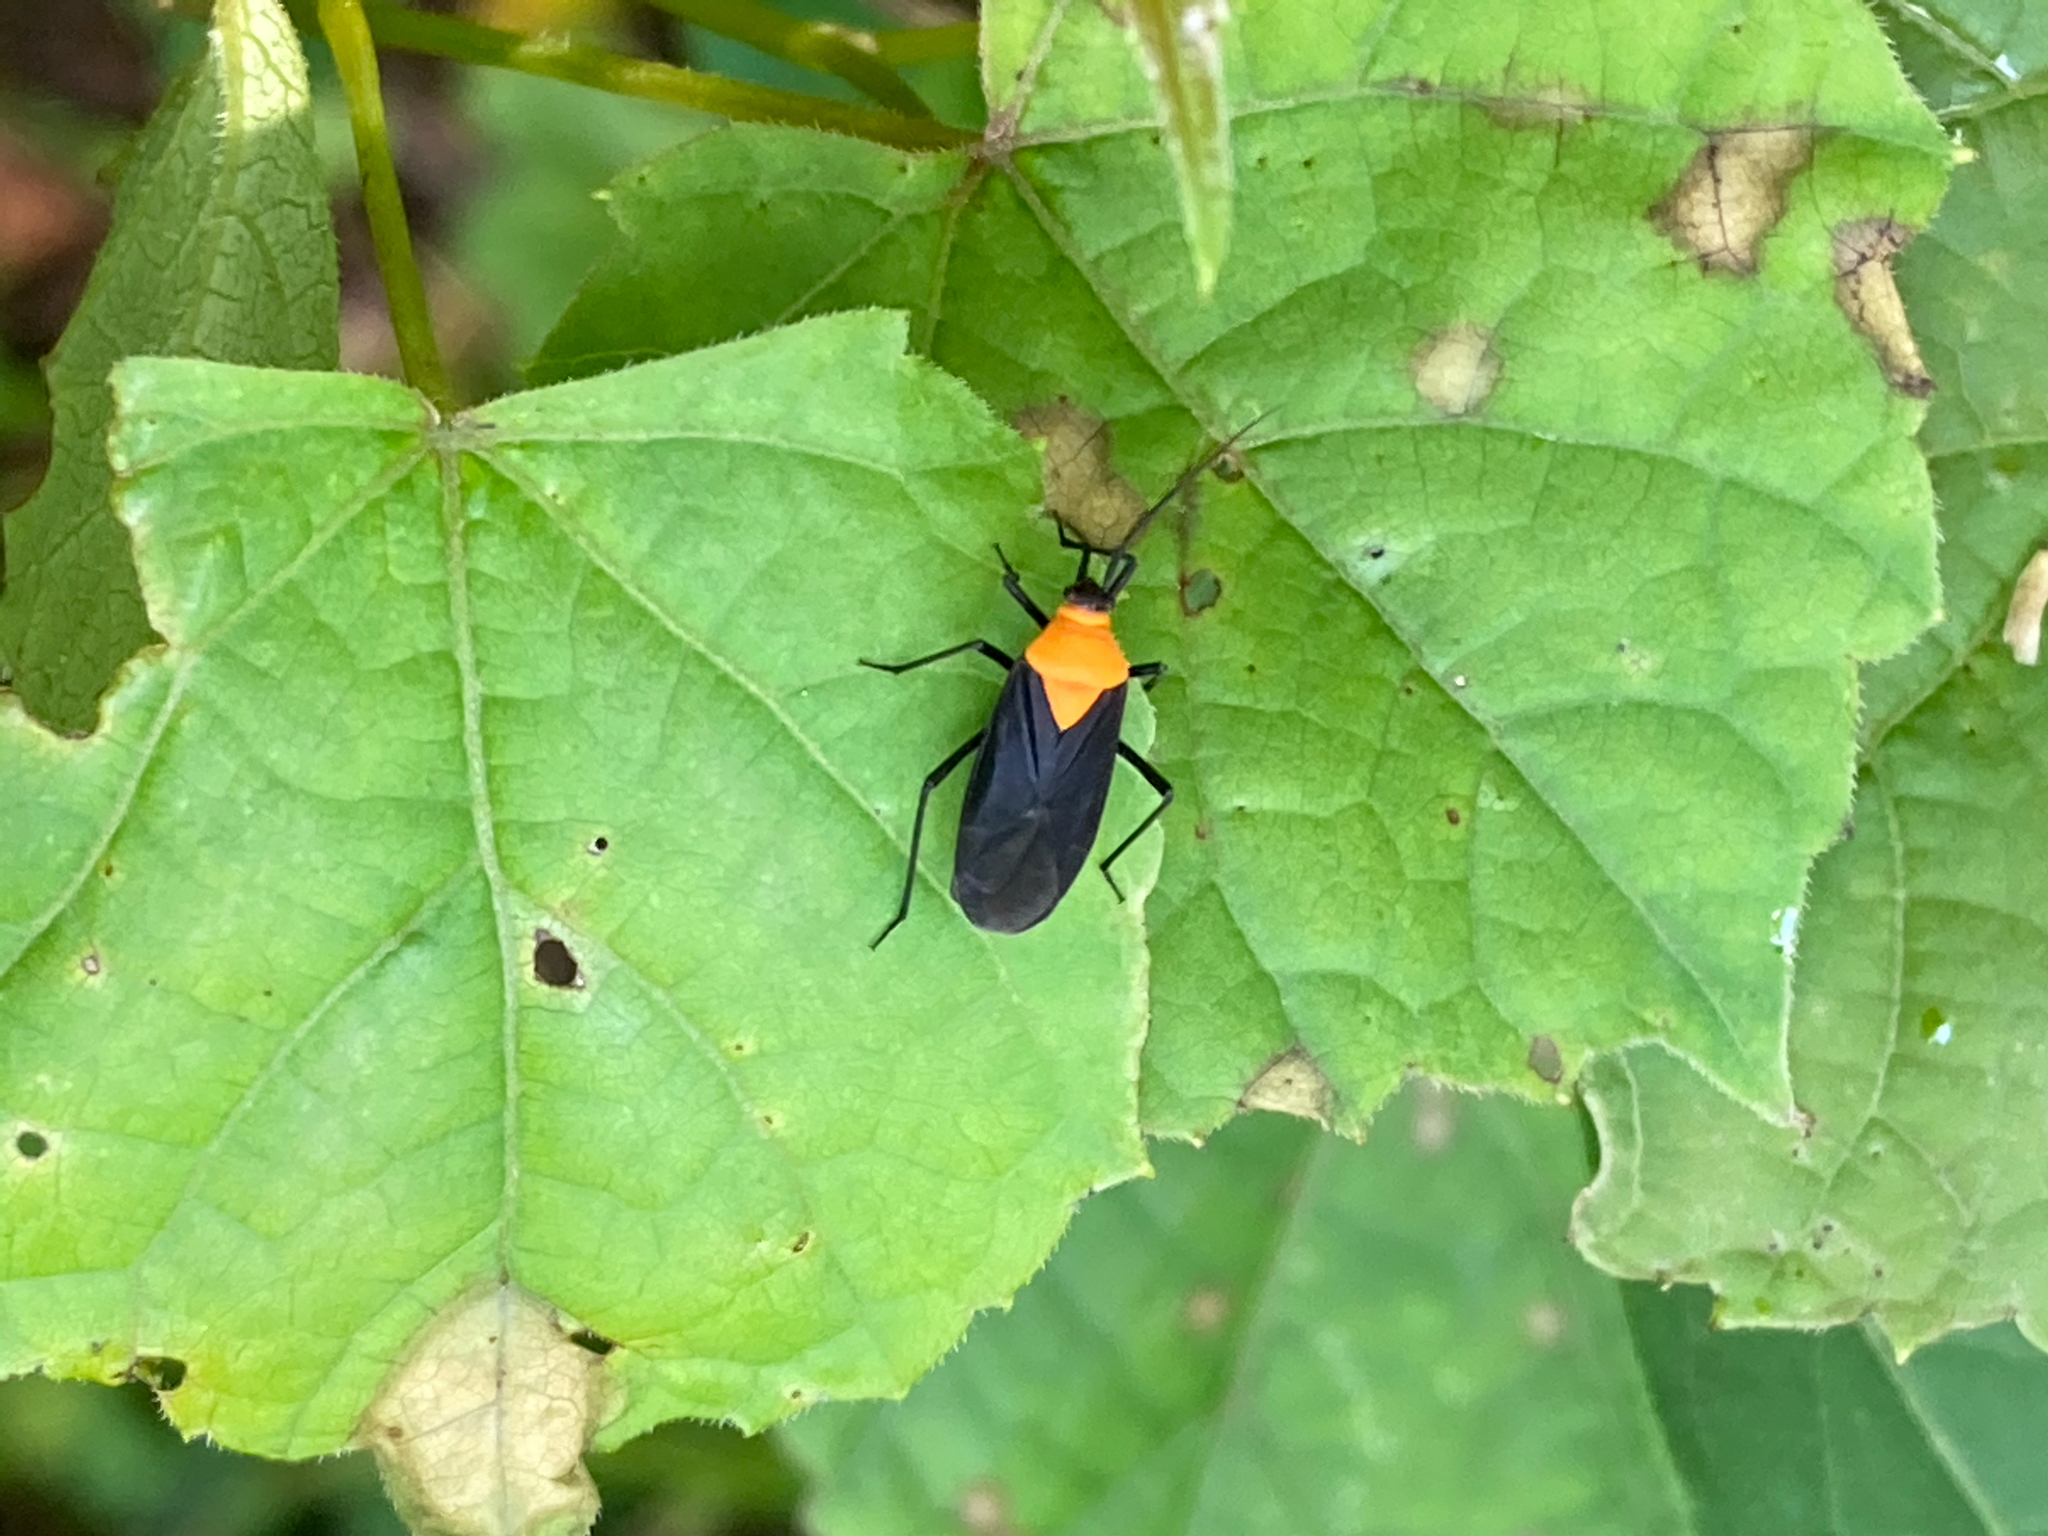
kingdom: Animalia
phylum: Arthropoda
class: Insecta
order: Hemiptera
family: Miridae
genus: Prepops
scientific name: Prepops insitivus
